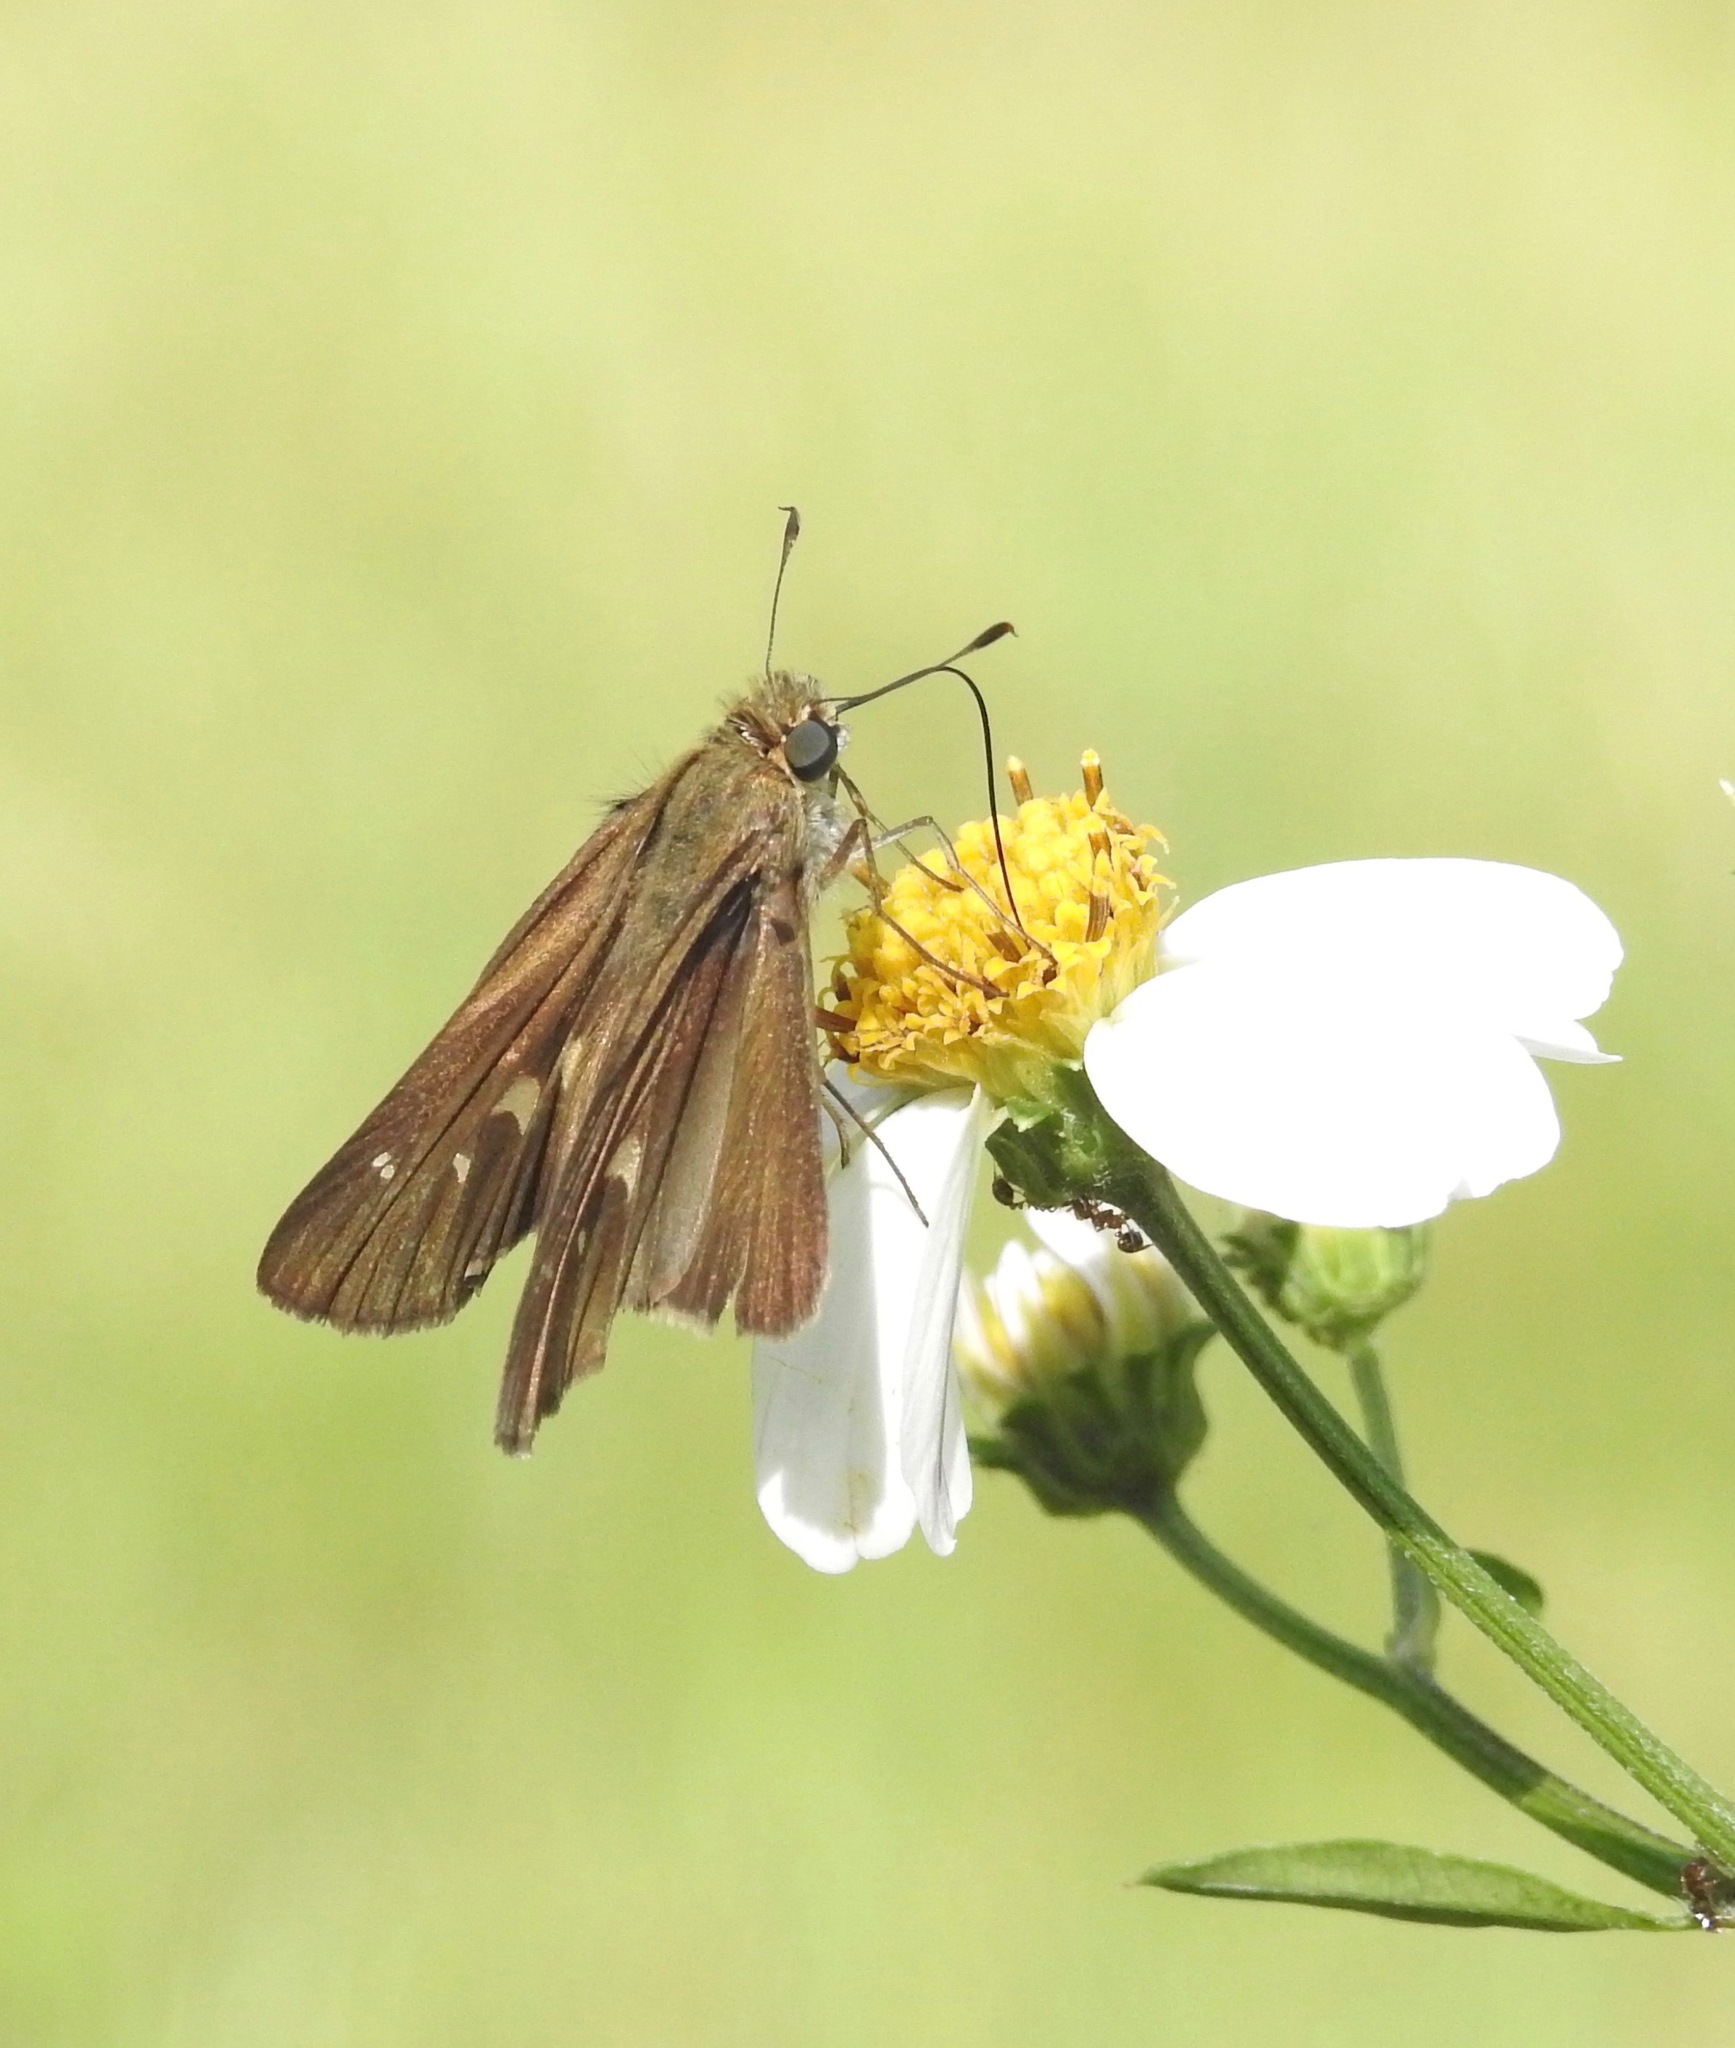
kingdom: Animalia
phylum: Arthropoda
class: Insecta
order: Lepidoptera
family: Hesperiidae
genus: Panoquina
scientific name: Panoquina ocola
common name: Ocola skipper
